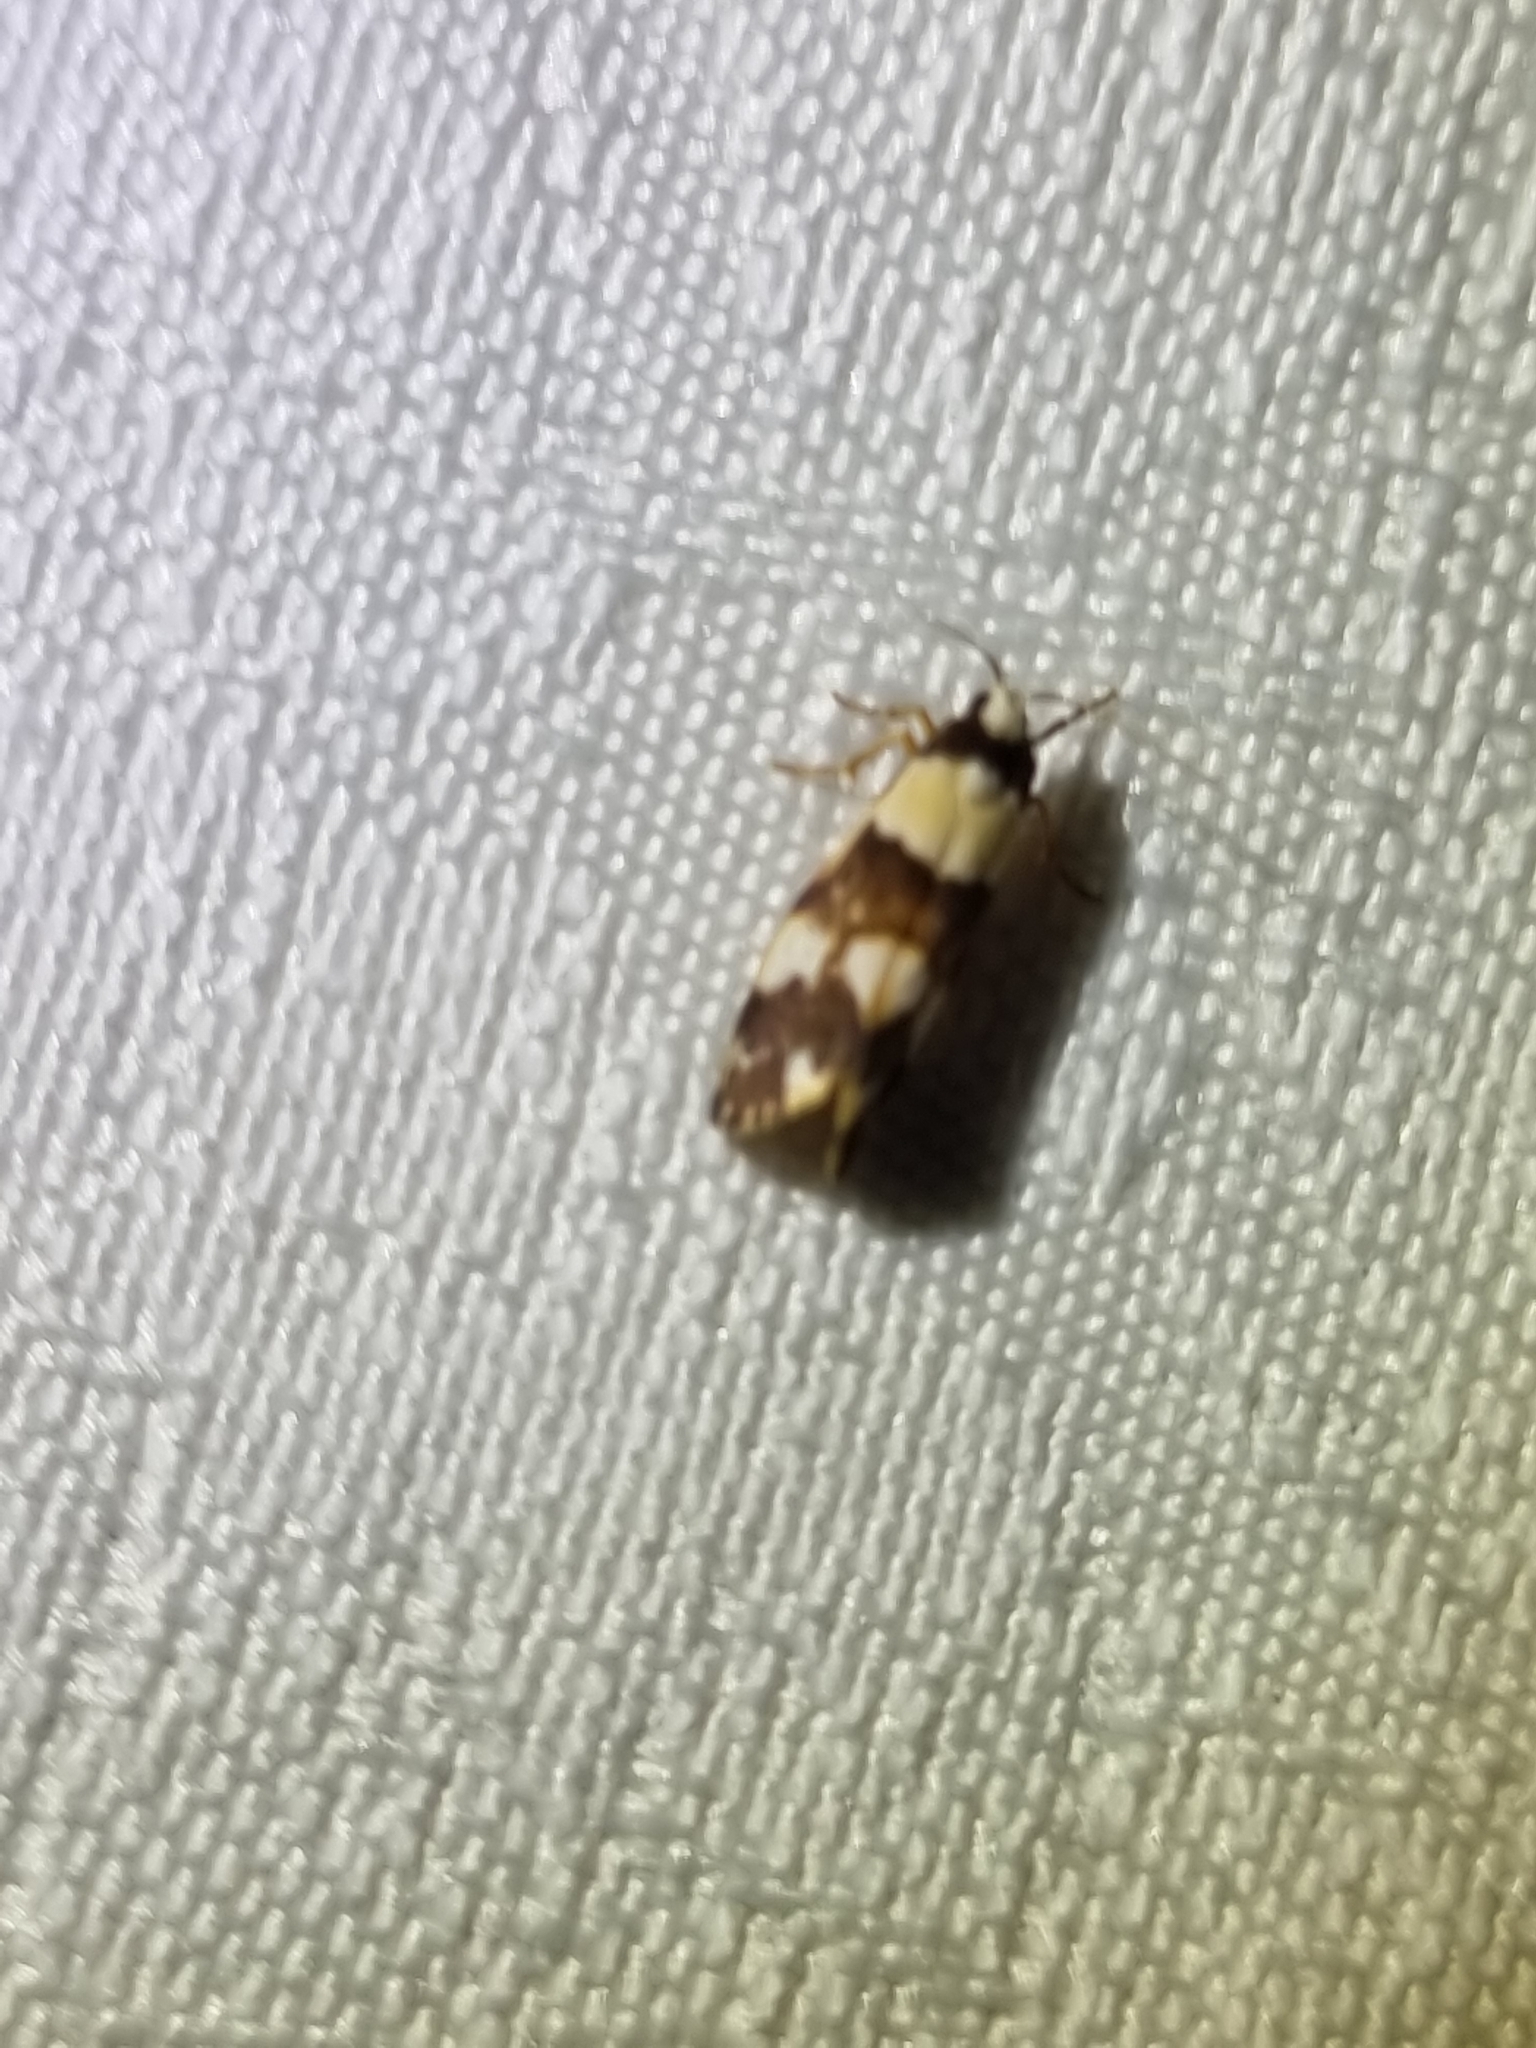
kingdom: Animalia
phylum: Arthropoda
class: Insecta
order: Lepidoptera
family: Erebidae
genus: Philenora
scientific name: Philenora aspectalella
